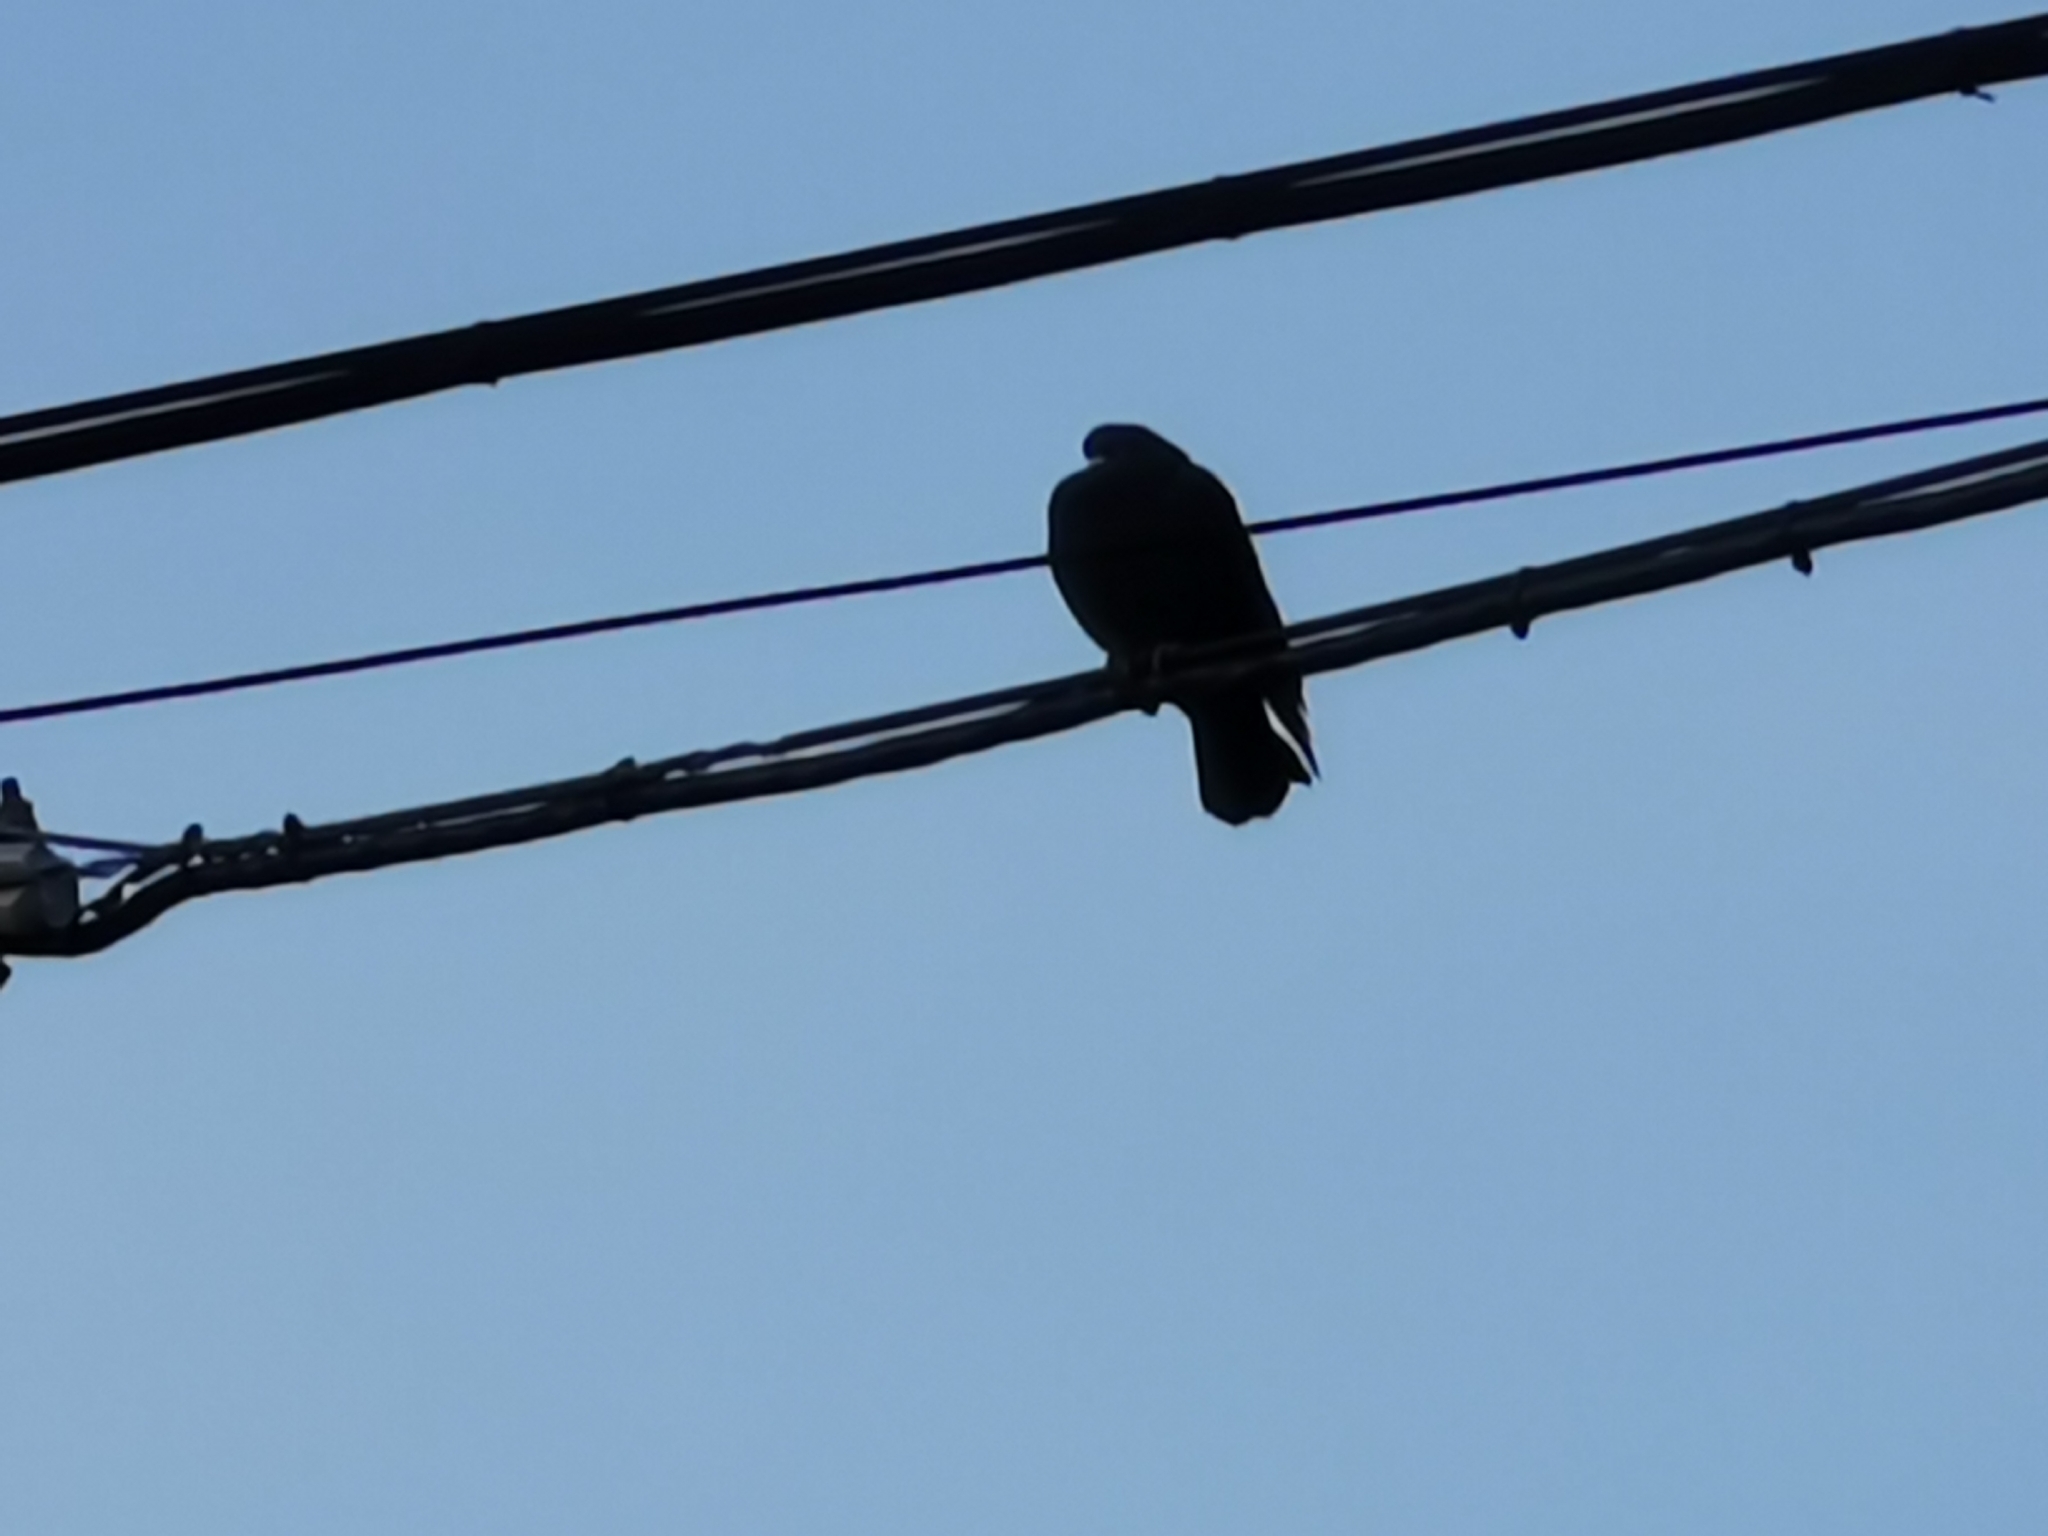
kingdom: Animalia
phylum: Chordata
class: Aves
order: Columbiformes
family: Columbidae
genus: Columba
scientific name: Columba livia
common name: Rock pigeon
